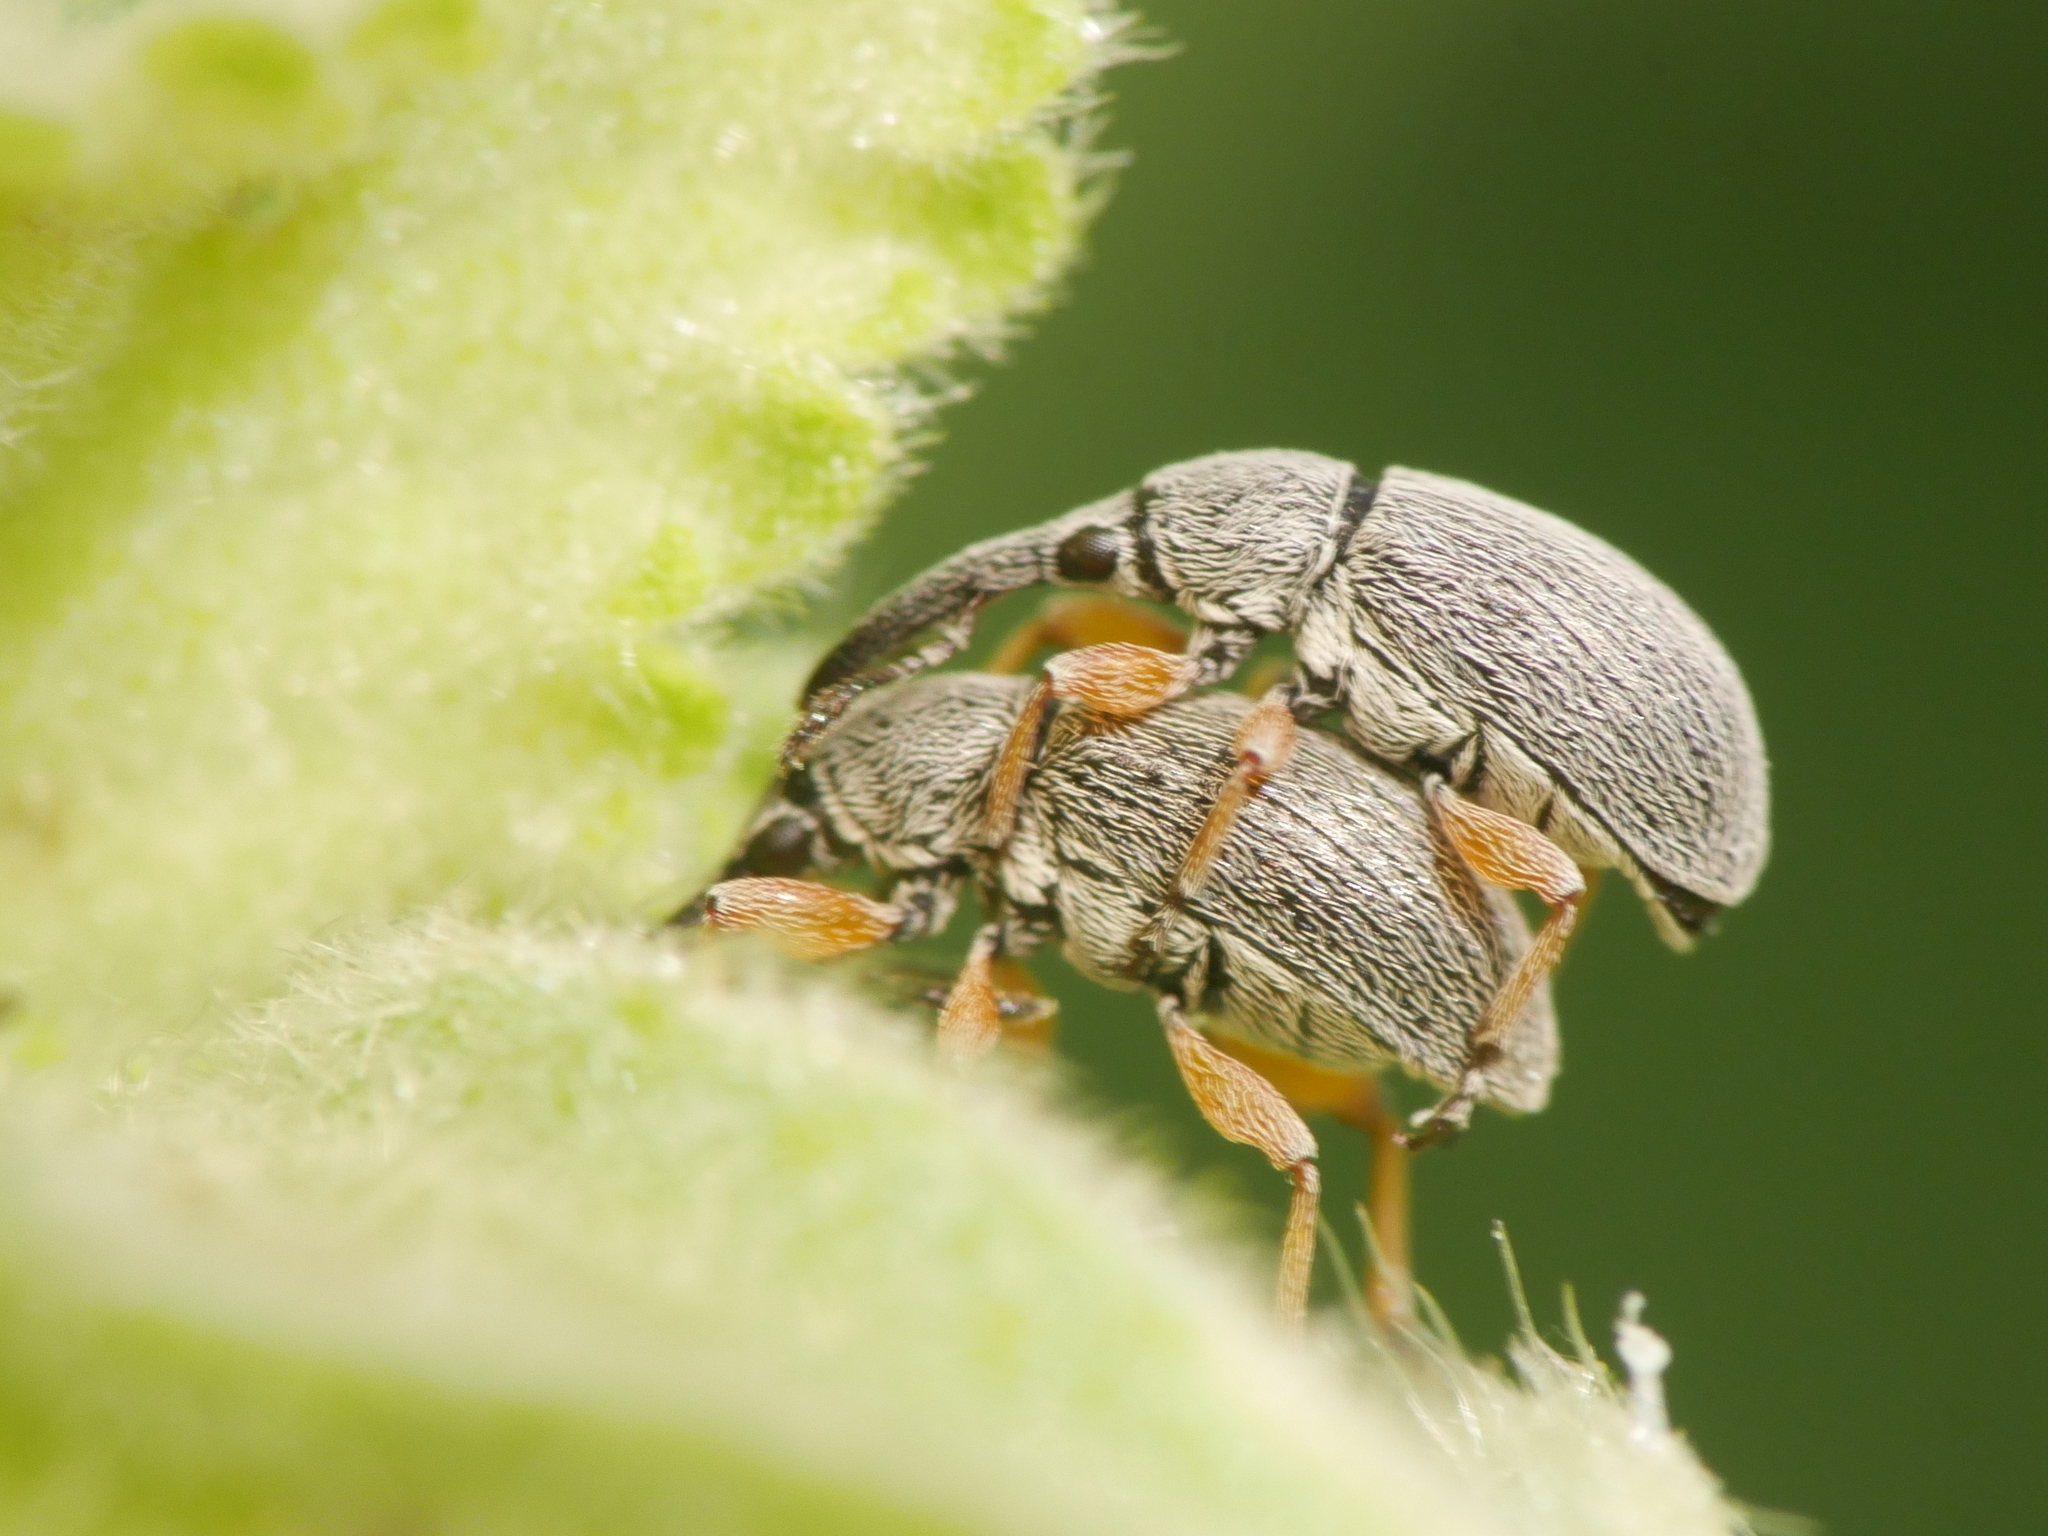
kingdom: Animalia
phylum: Arthropoda
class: Insecta
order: Coleoptera
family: Brentidae
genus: Rhopalapion
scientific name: Rhopalapion longirostre
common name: Hollyhock weevil
